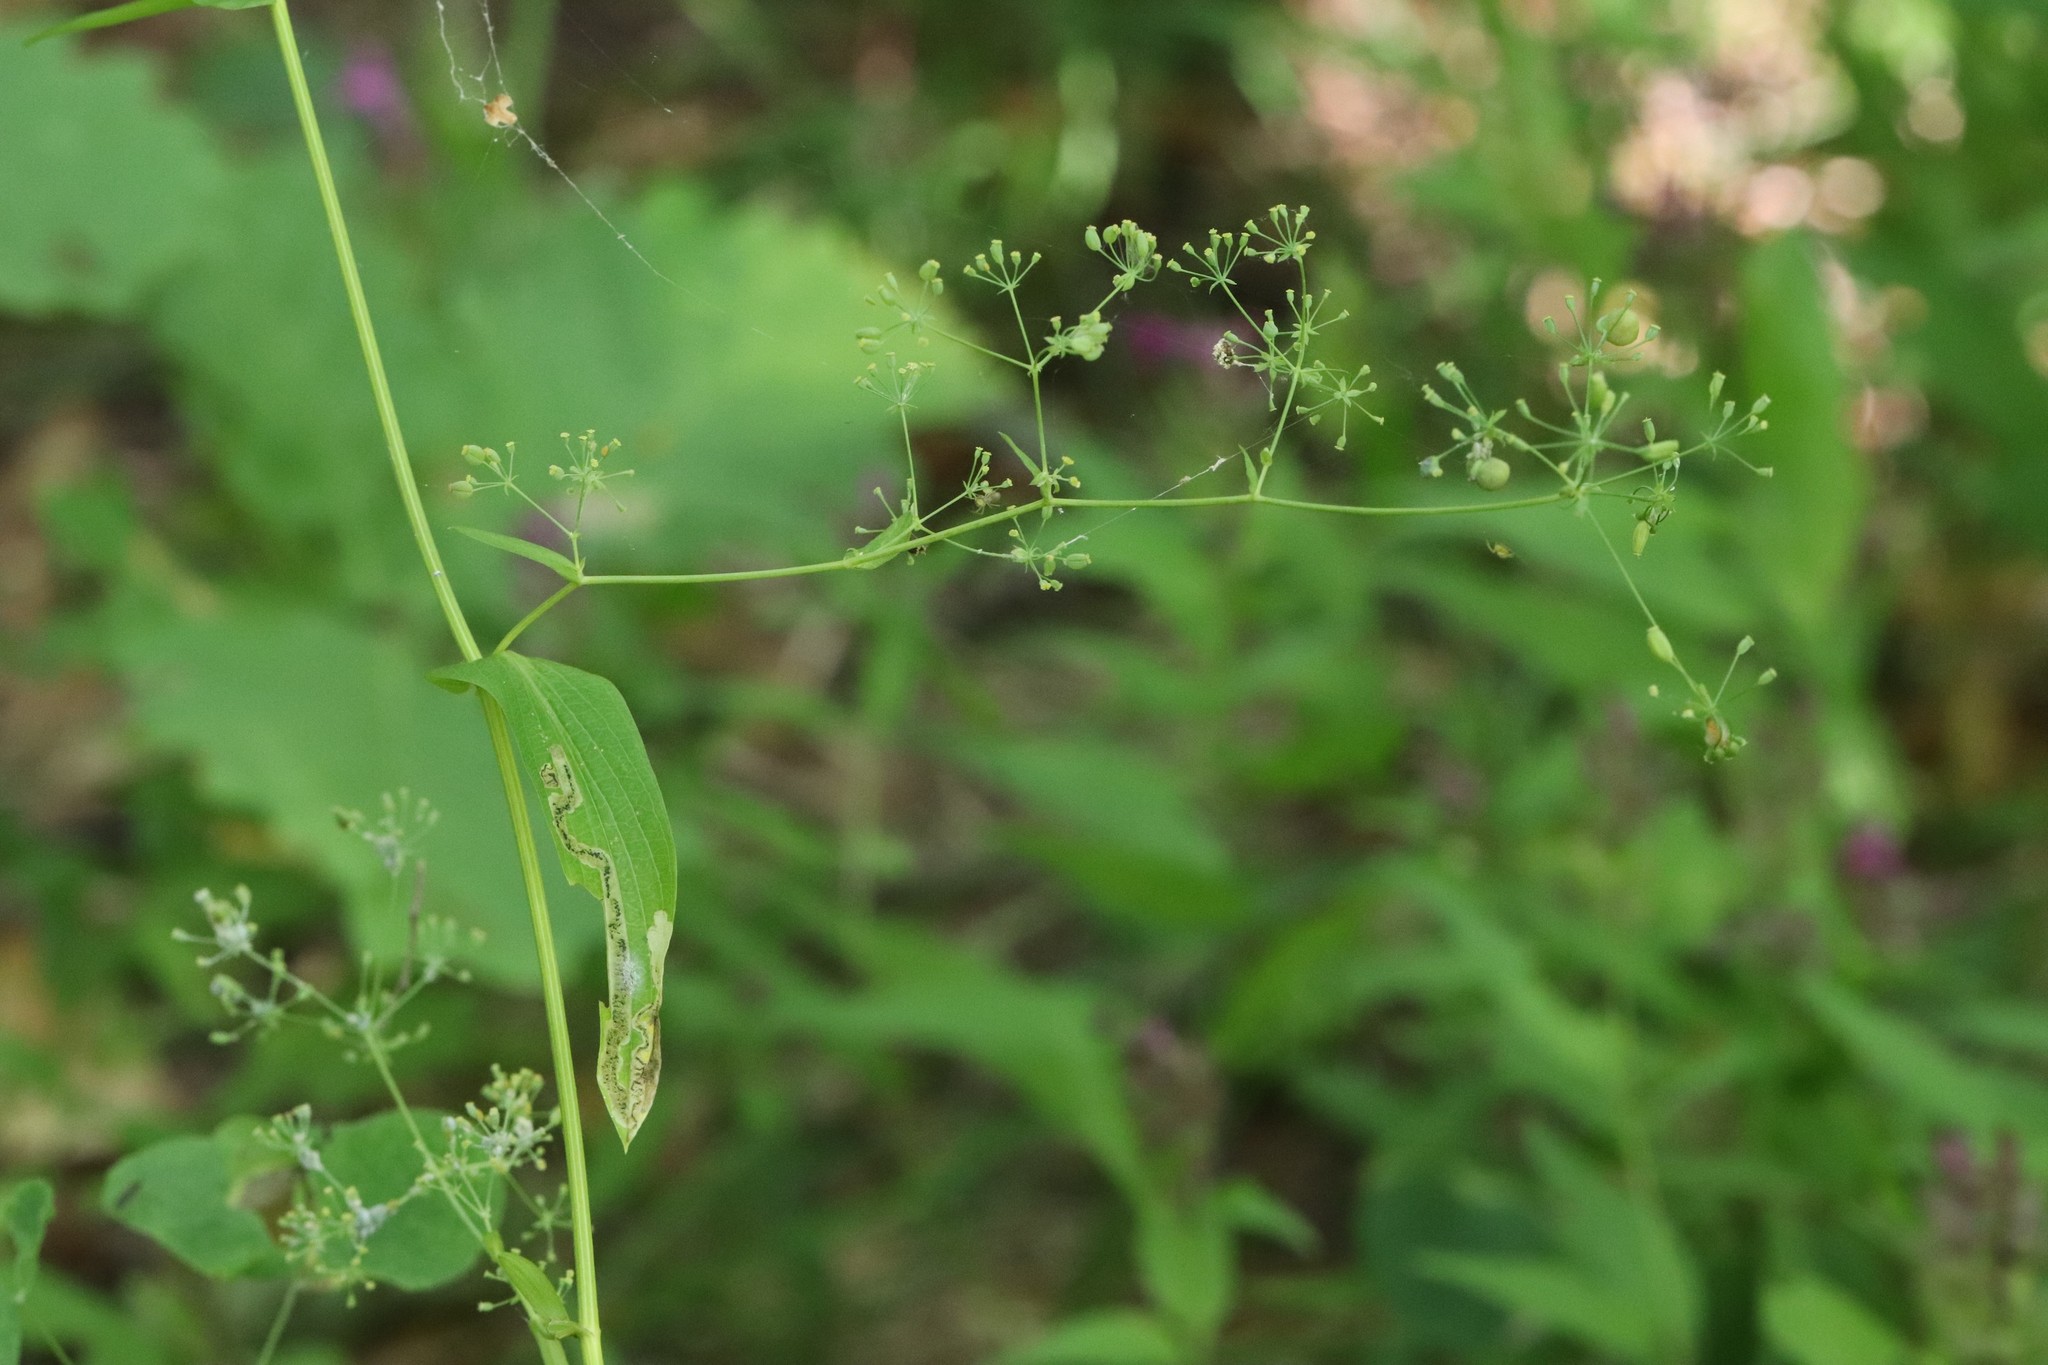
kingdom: Plantae
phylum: Tracheophyta
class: Magnoliopsida
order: Apiales
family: Apiaceae
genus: Bupleurum
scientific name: Bupleurum longiradiatum
